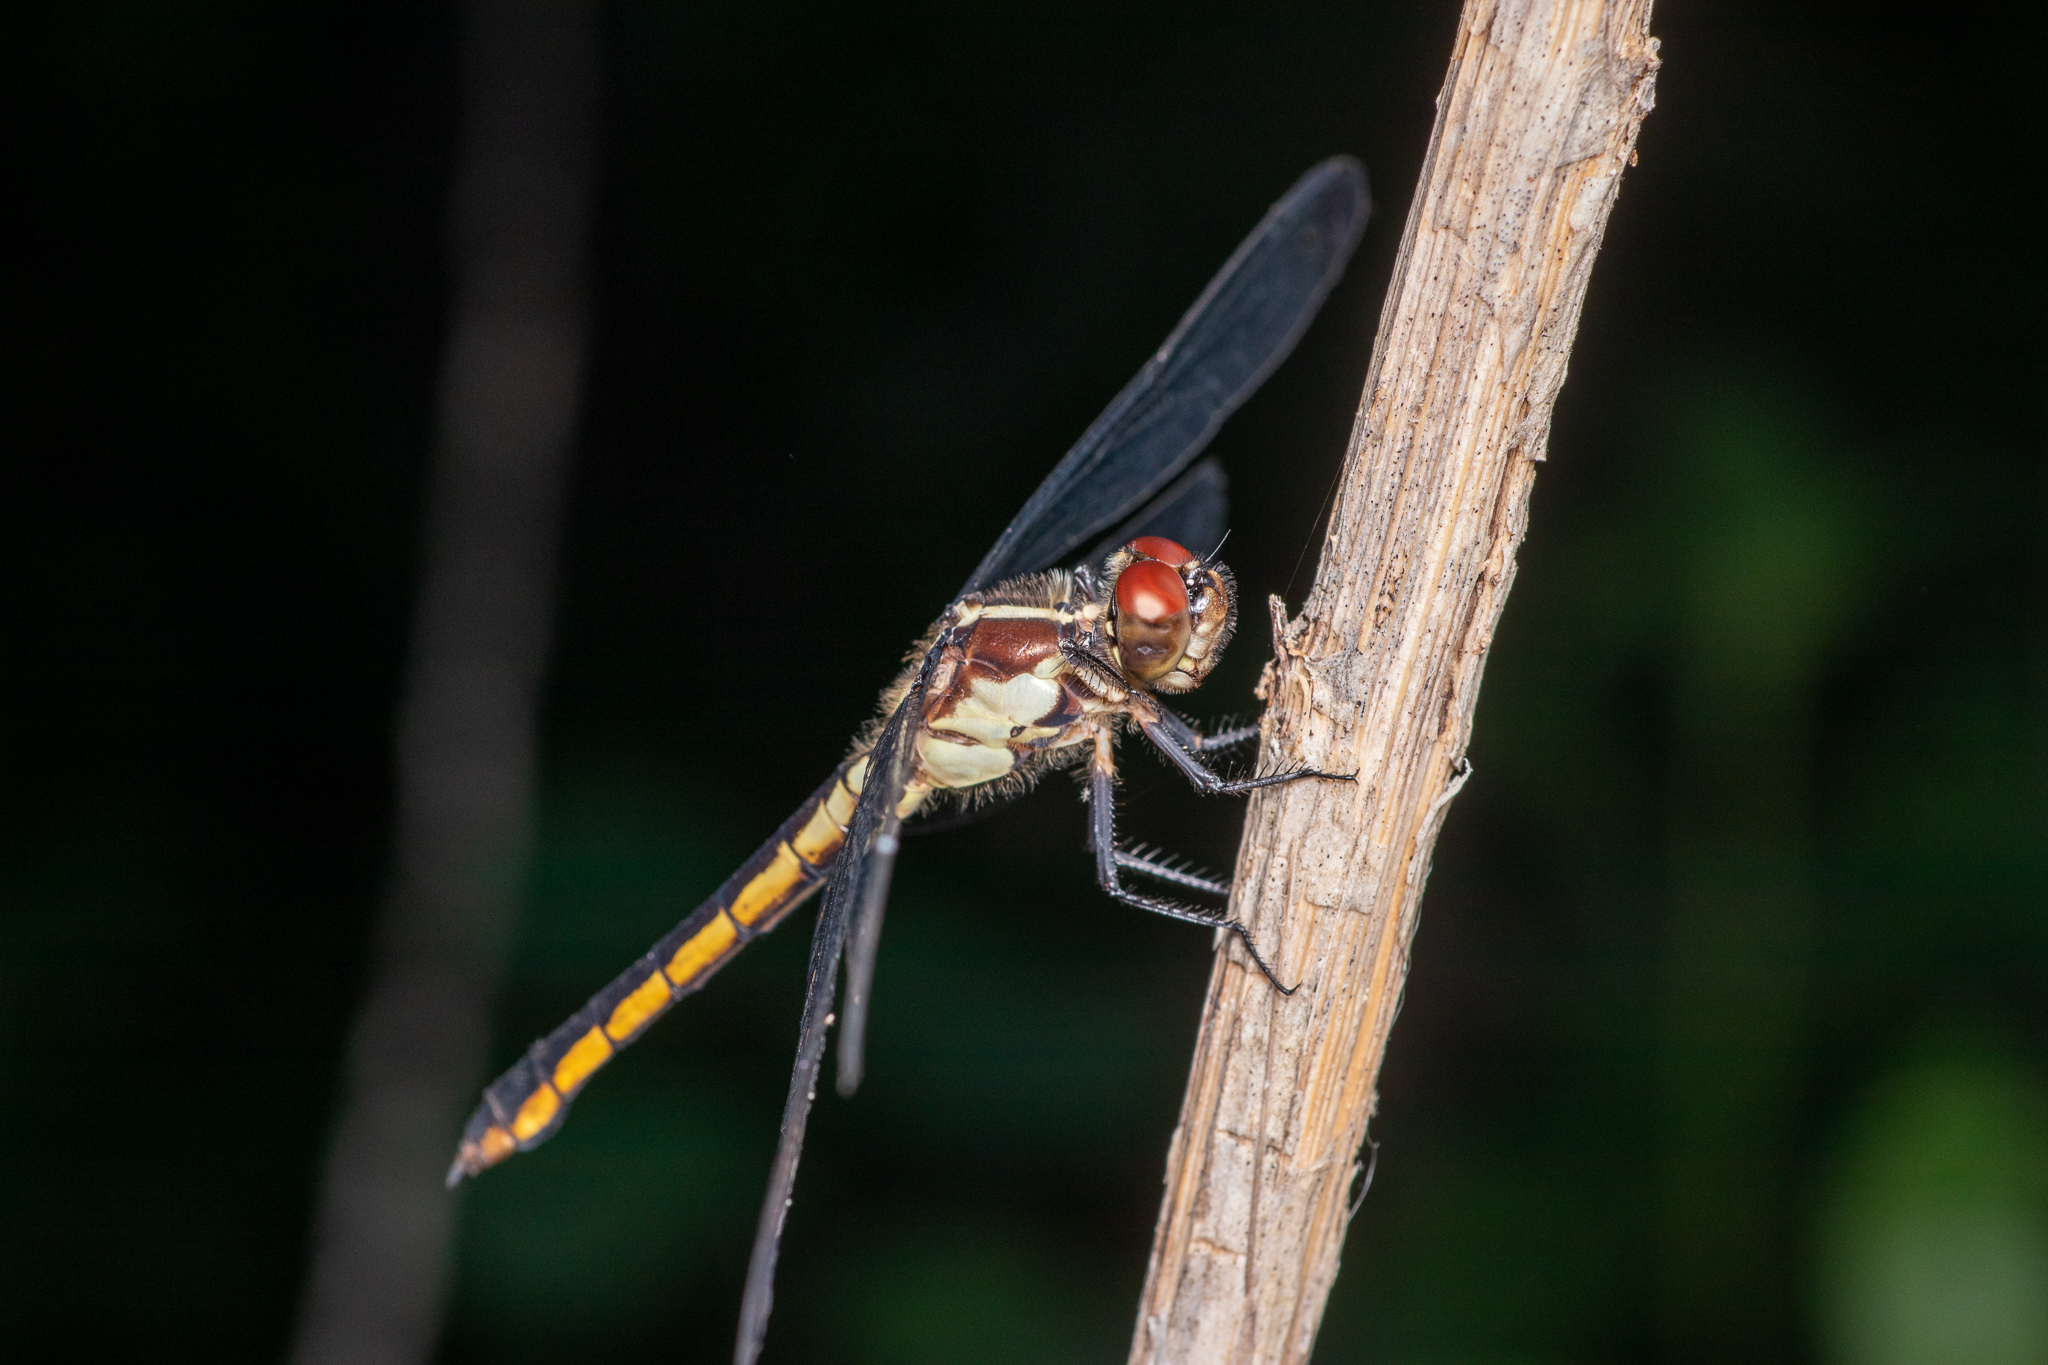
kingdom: Animalia
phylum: Arthropoda
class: Insecta
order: Odonata
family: Libellulidae
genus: Libellula
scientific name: Libellula incesta
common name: Slaty skimmer
